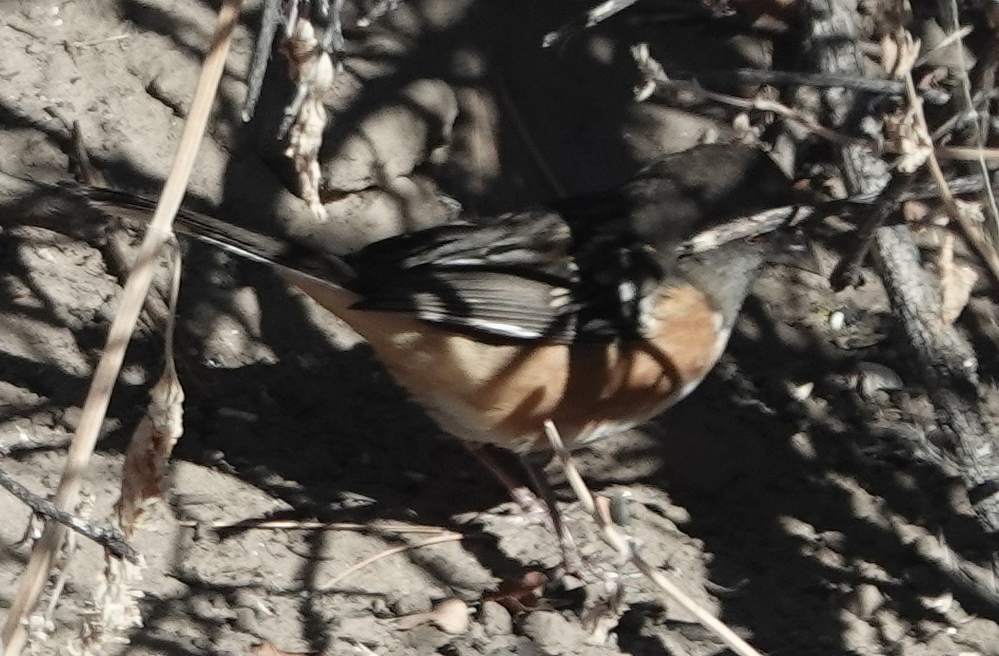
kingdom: Animalia
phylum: Chordata
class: Aves
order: Passeriformes
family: Passerellidae
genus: Pipilo
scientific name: Pipilo maculatus
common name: Spotted towhee
